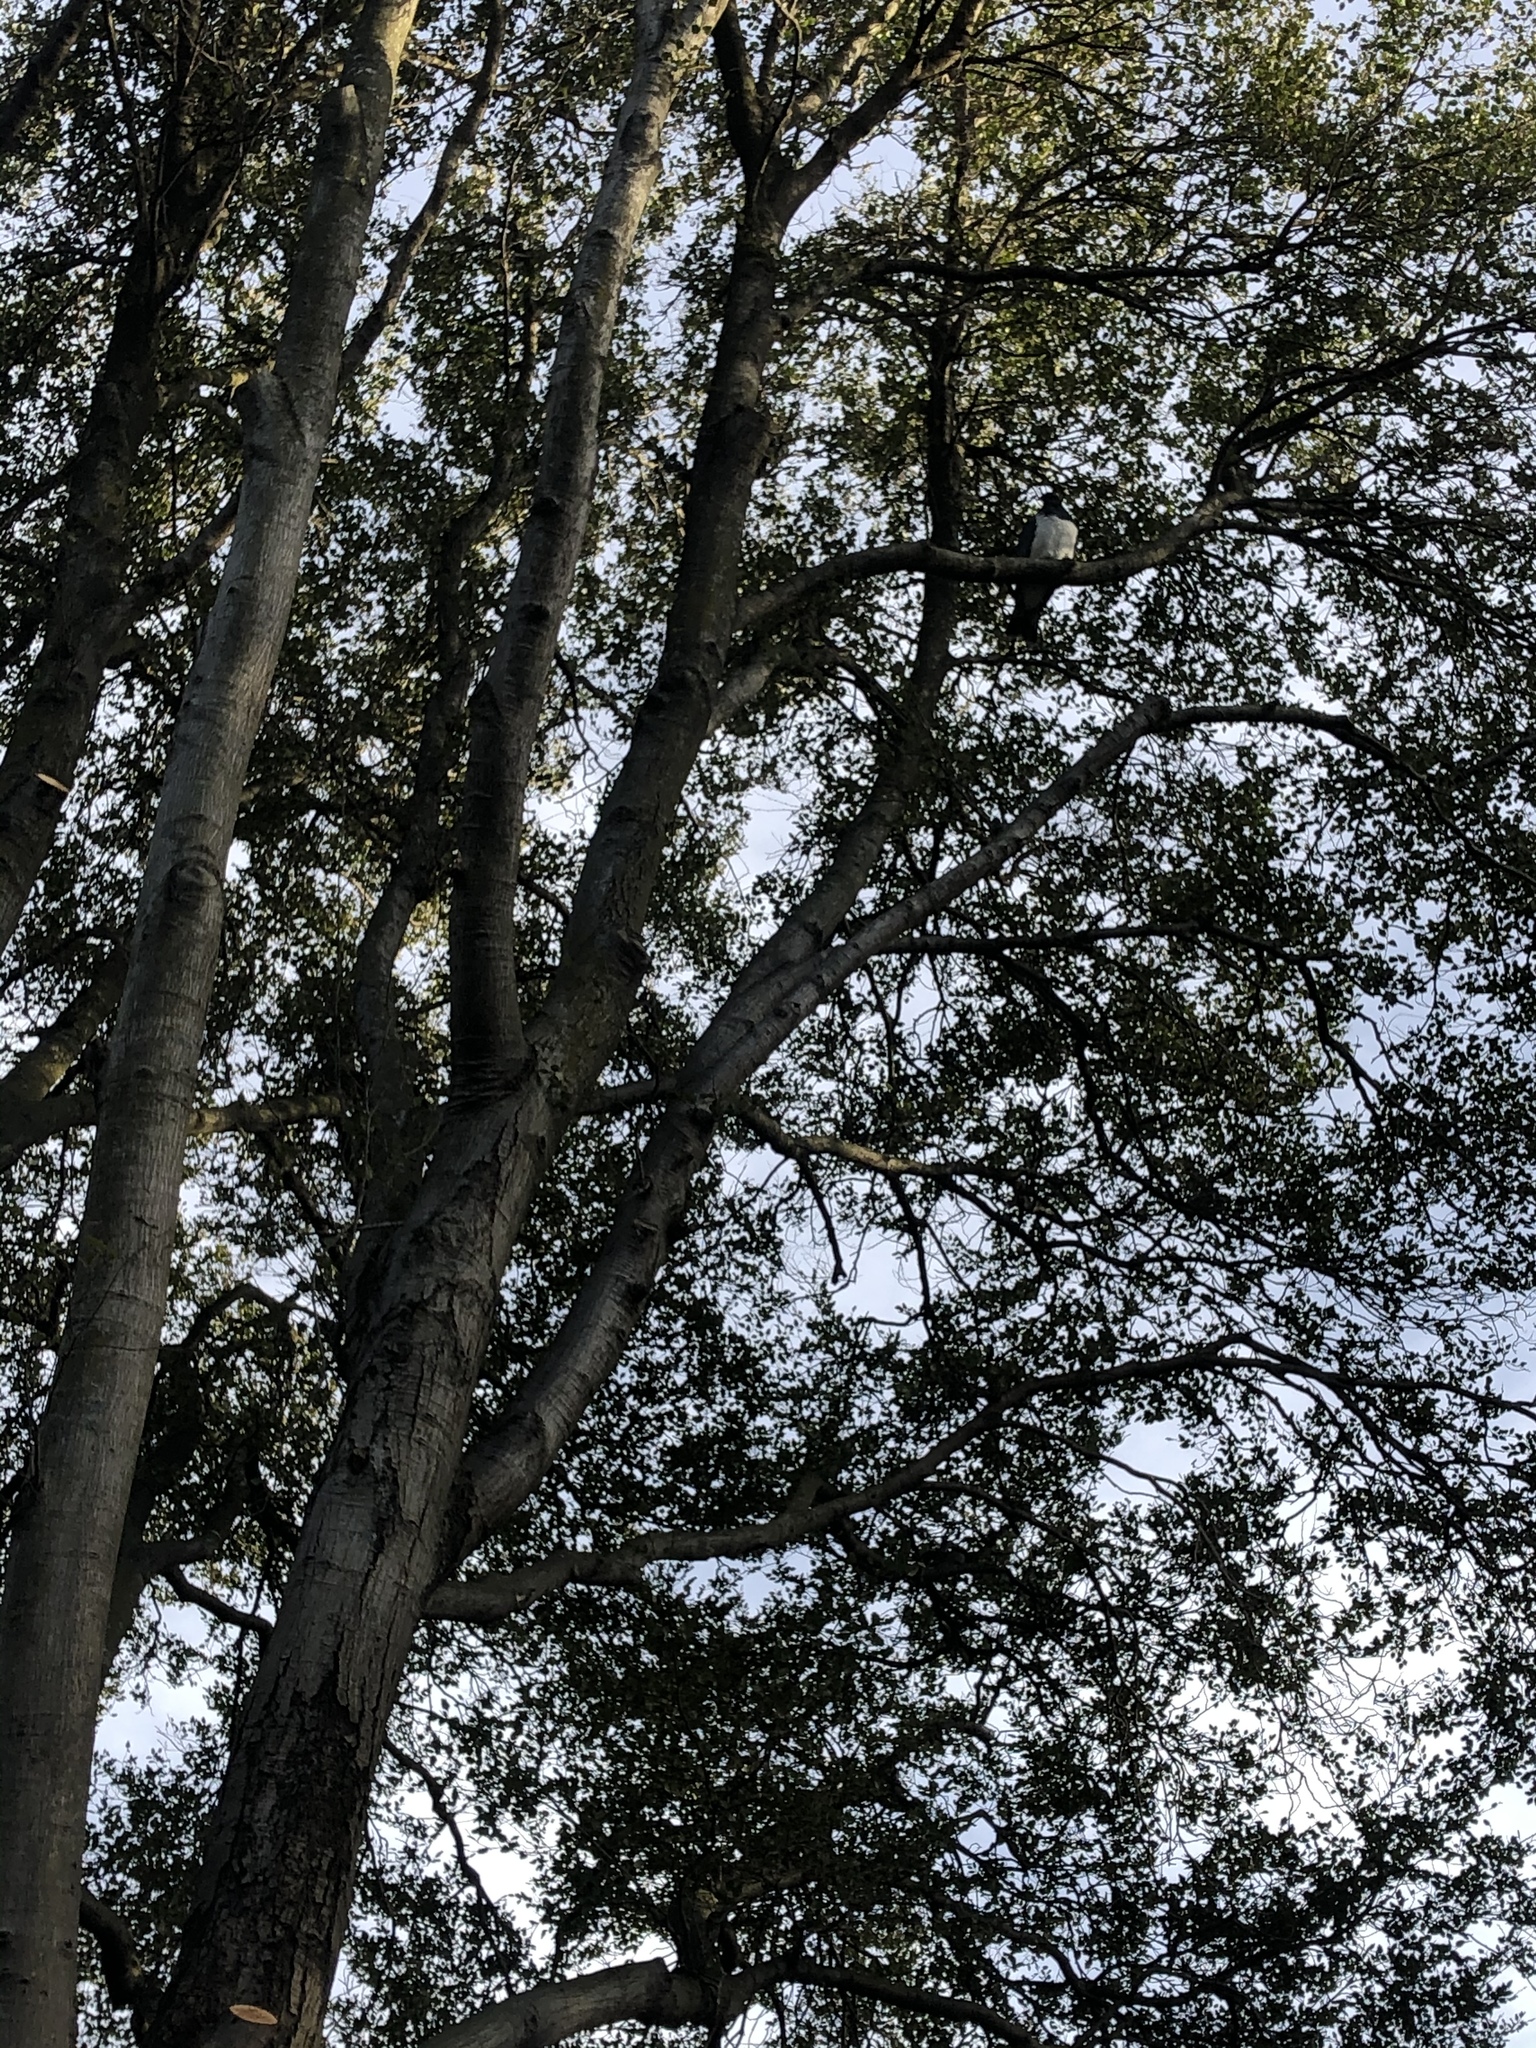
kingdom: Animalia
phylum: Chordata
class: Aves
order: Columbiformes
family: Columbidae
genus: Hemiphaga
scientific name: Hemiphaga novaeseelandiae
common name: New zealand pigeon
